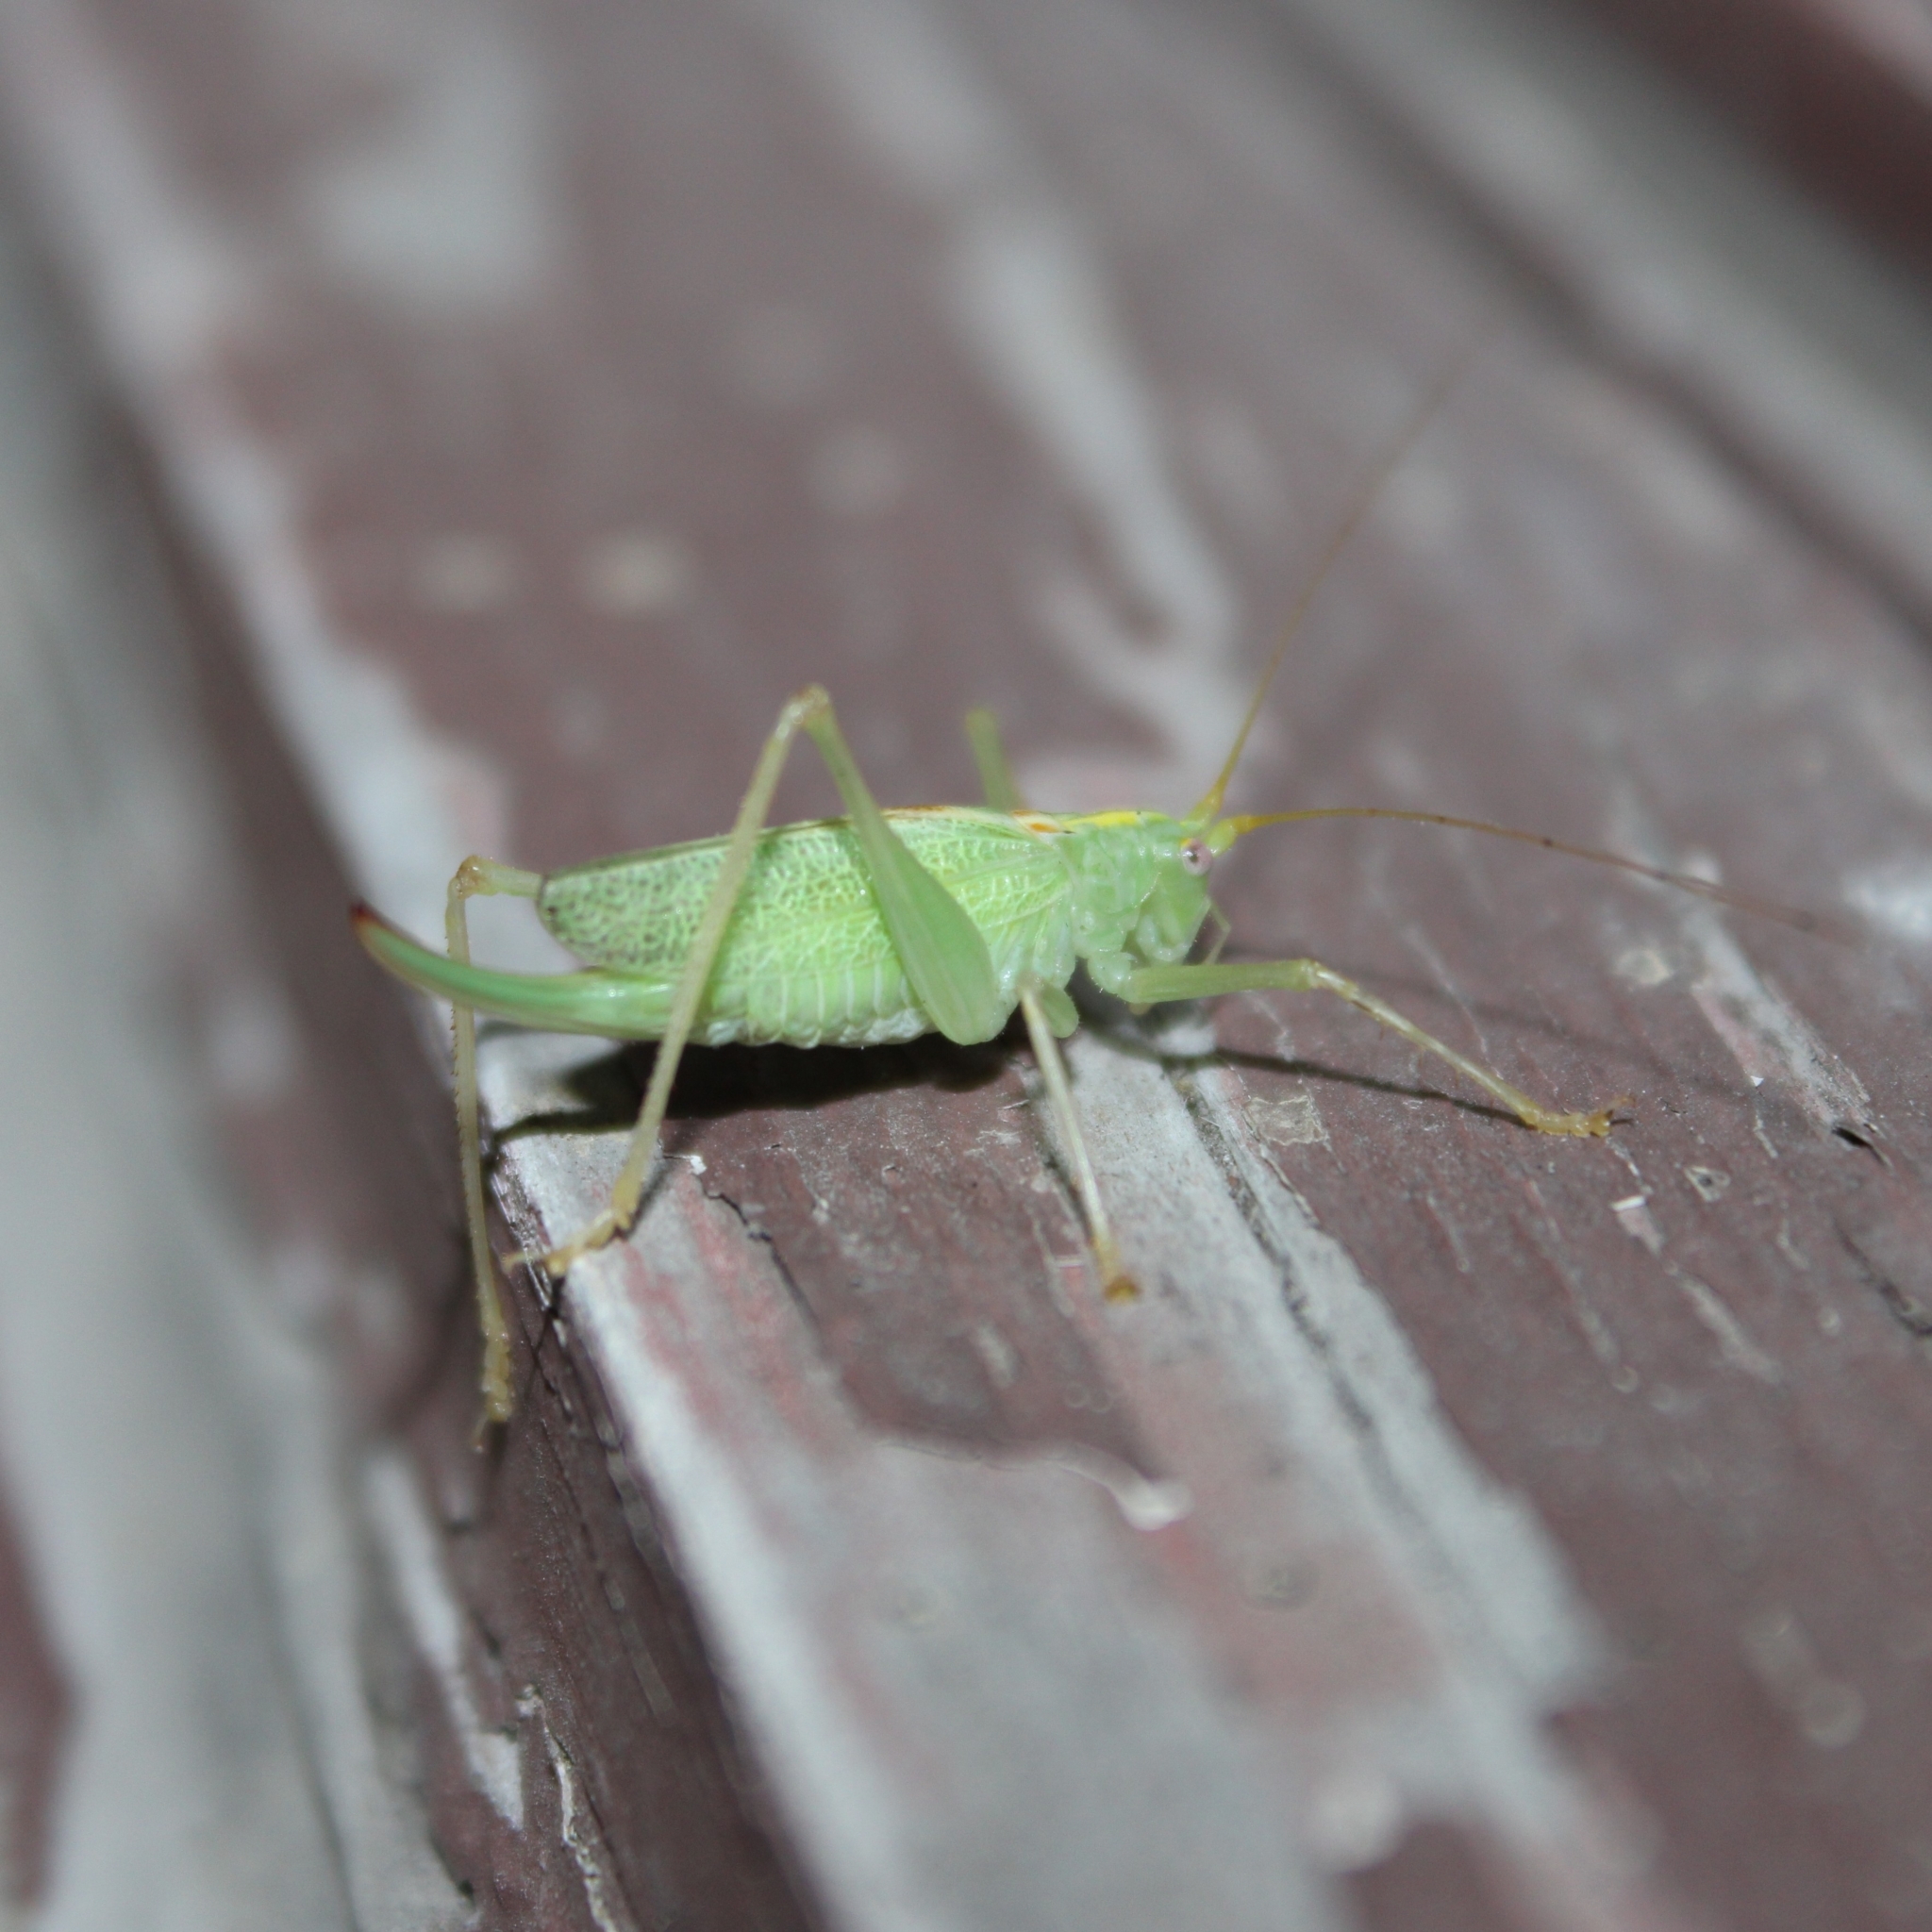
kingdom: Animalia
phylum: Arthropoda
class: Insecta
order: Orthoptera
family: Tettigoniidae
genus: Meconema
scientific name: Meconema thalassinum
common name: Oak bush-cricket
